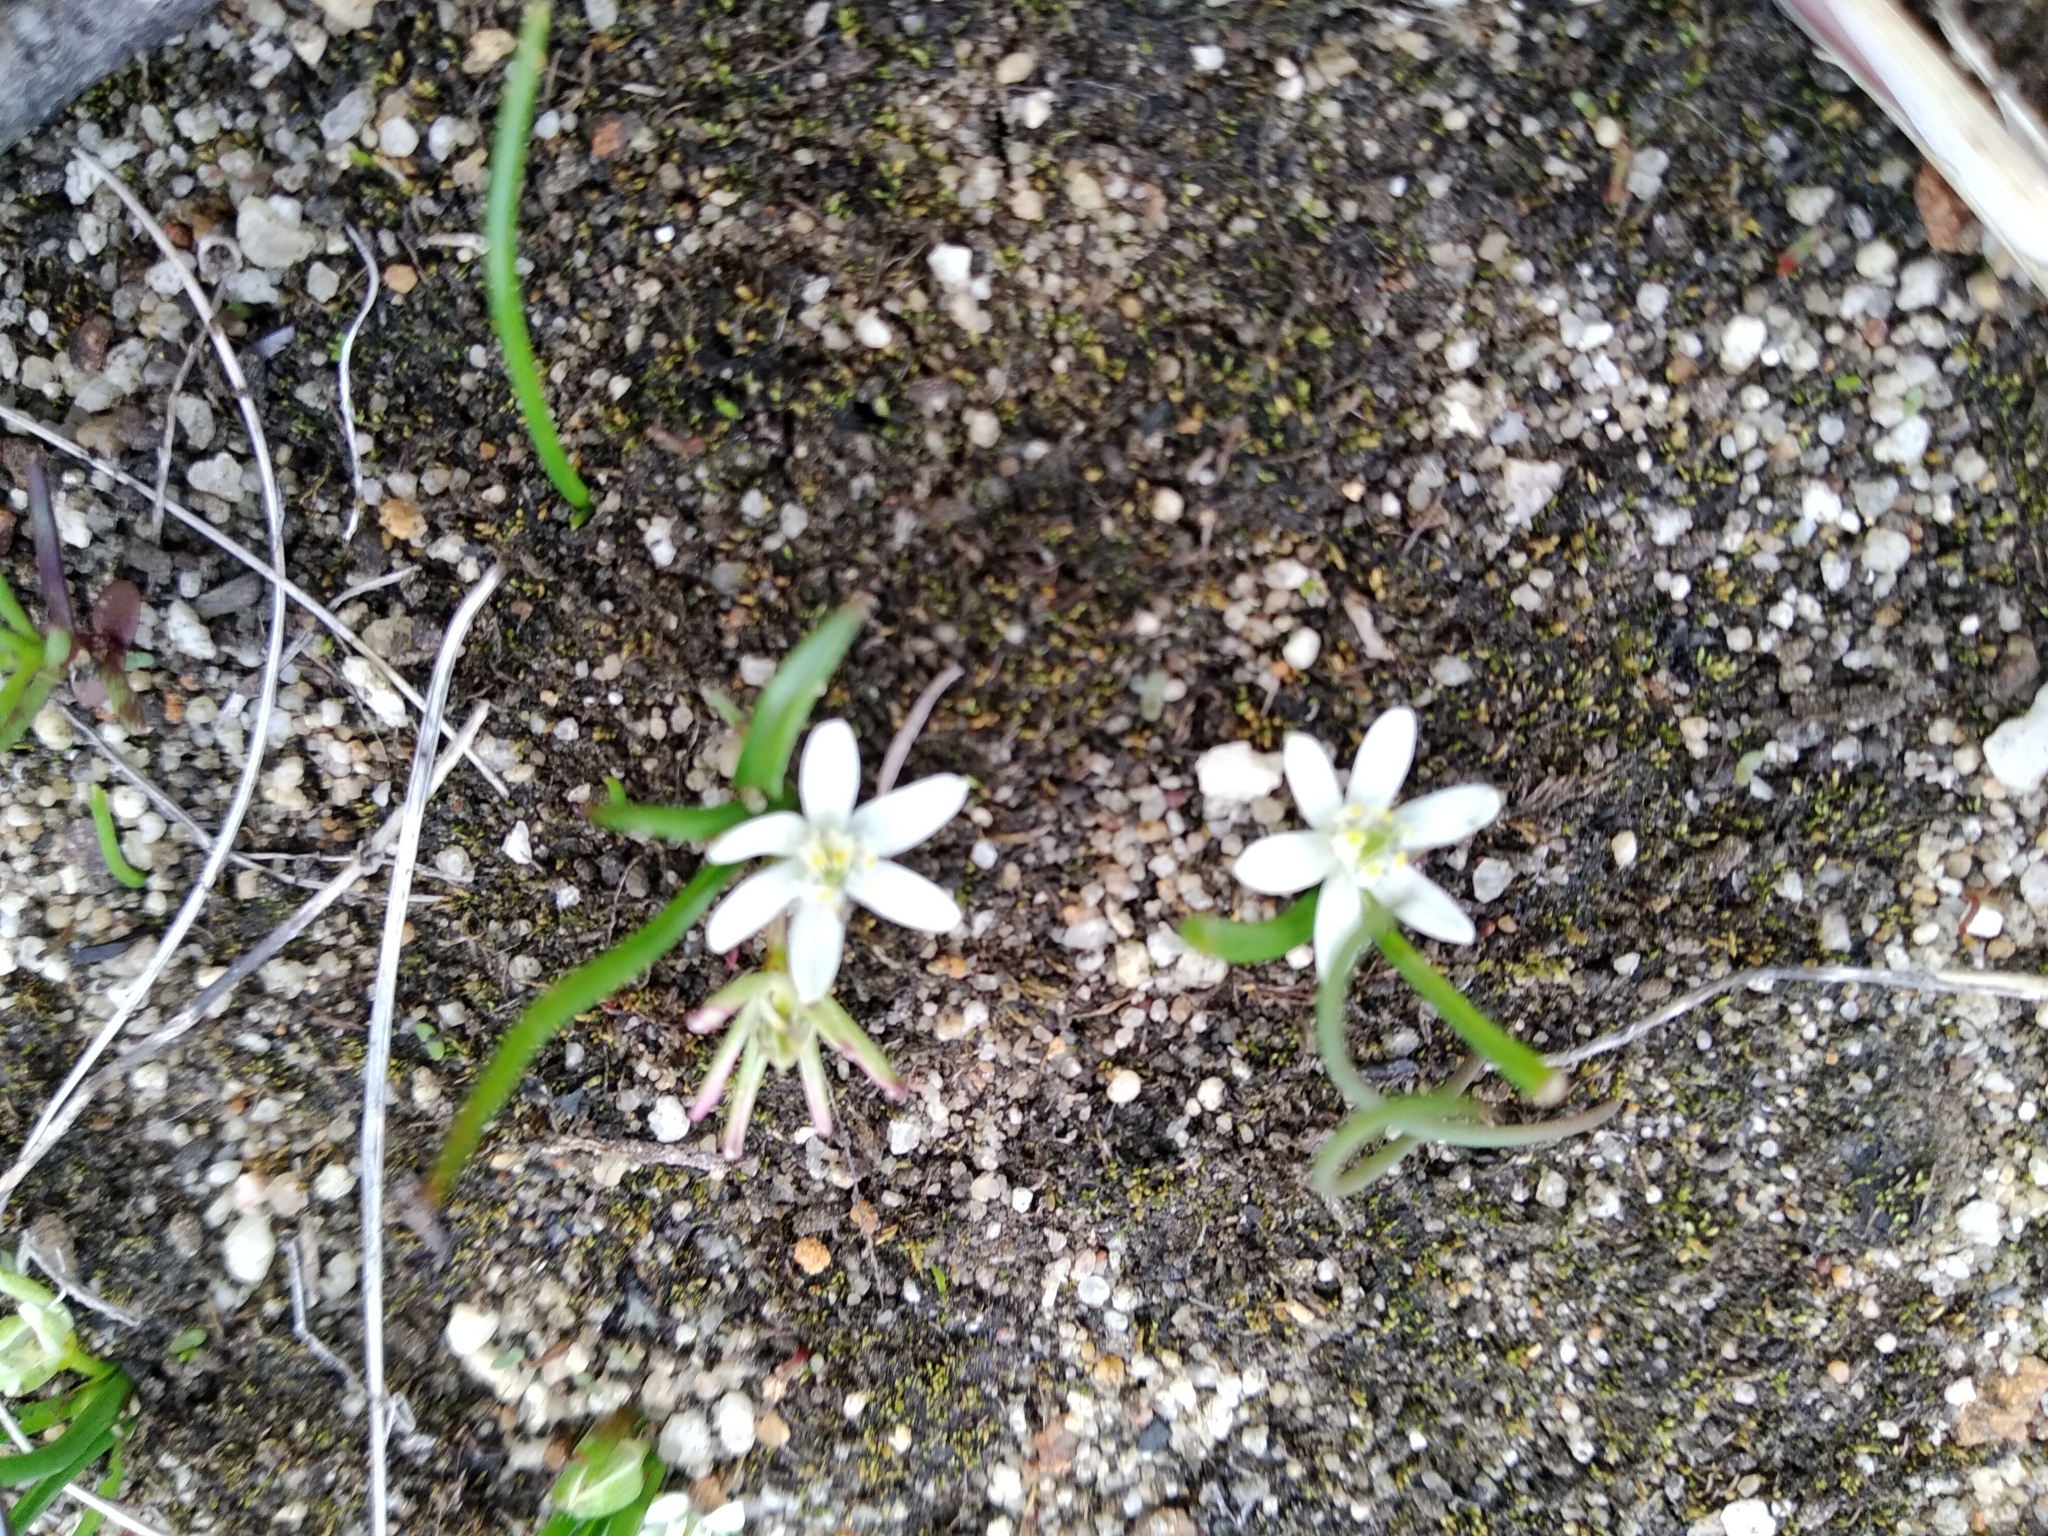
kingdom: Plantae
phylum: Tracheophyta
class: Liliopsida
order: Asparagales
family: Hypoxidaceae
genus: Pauridia
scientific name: Pauridia pygmaea
